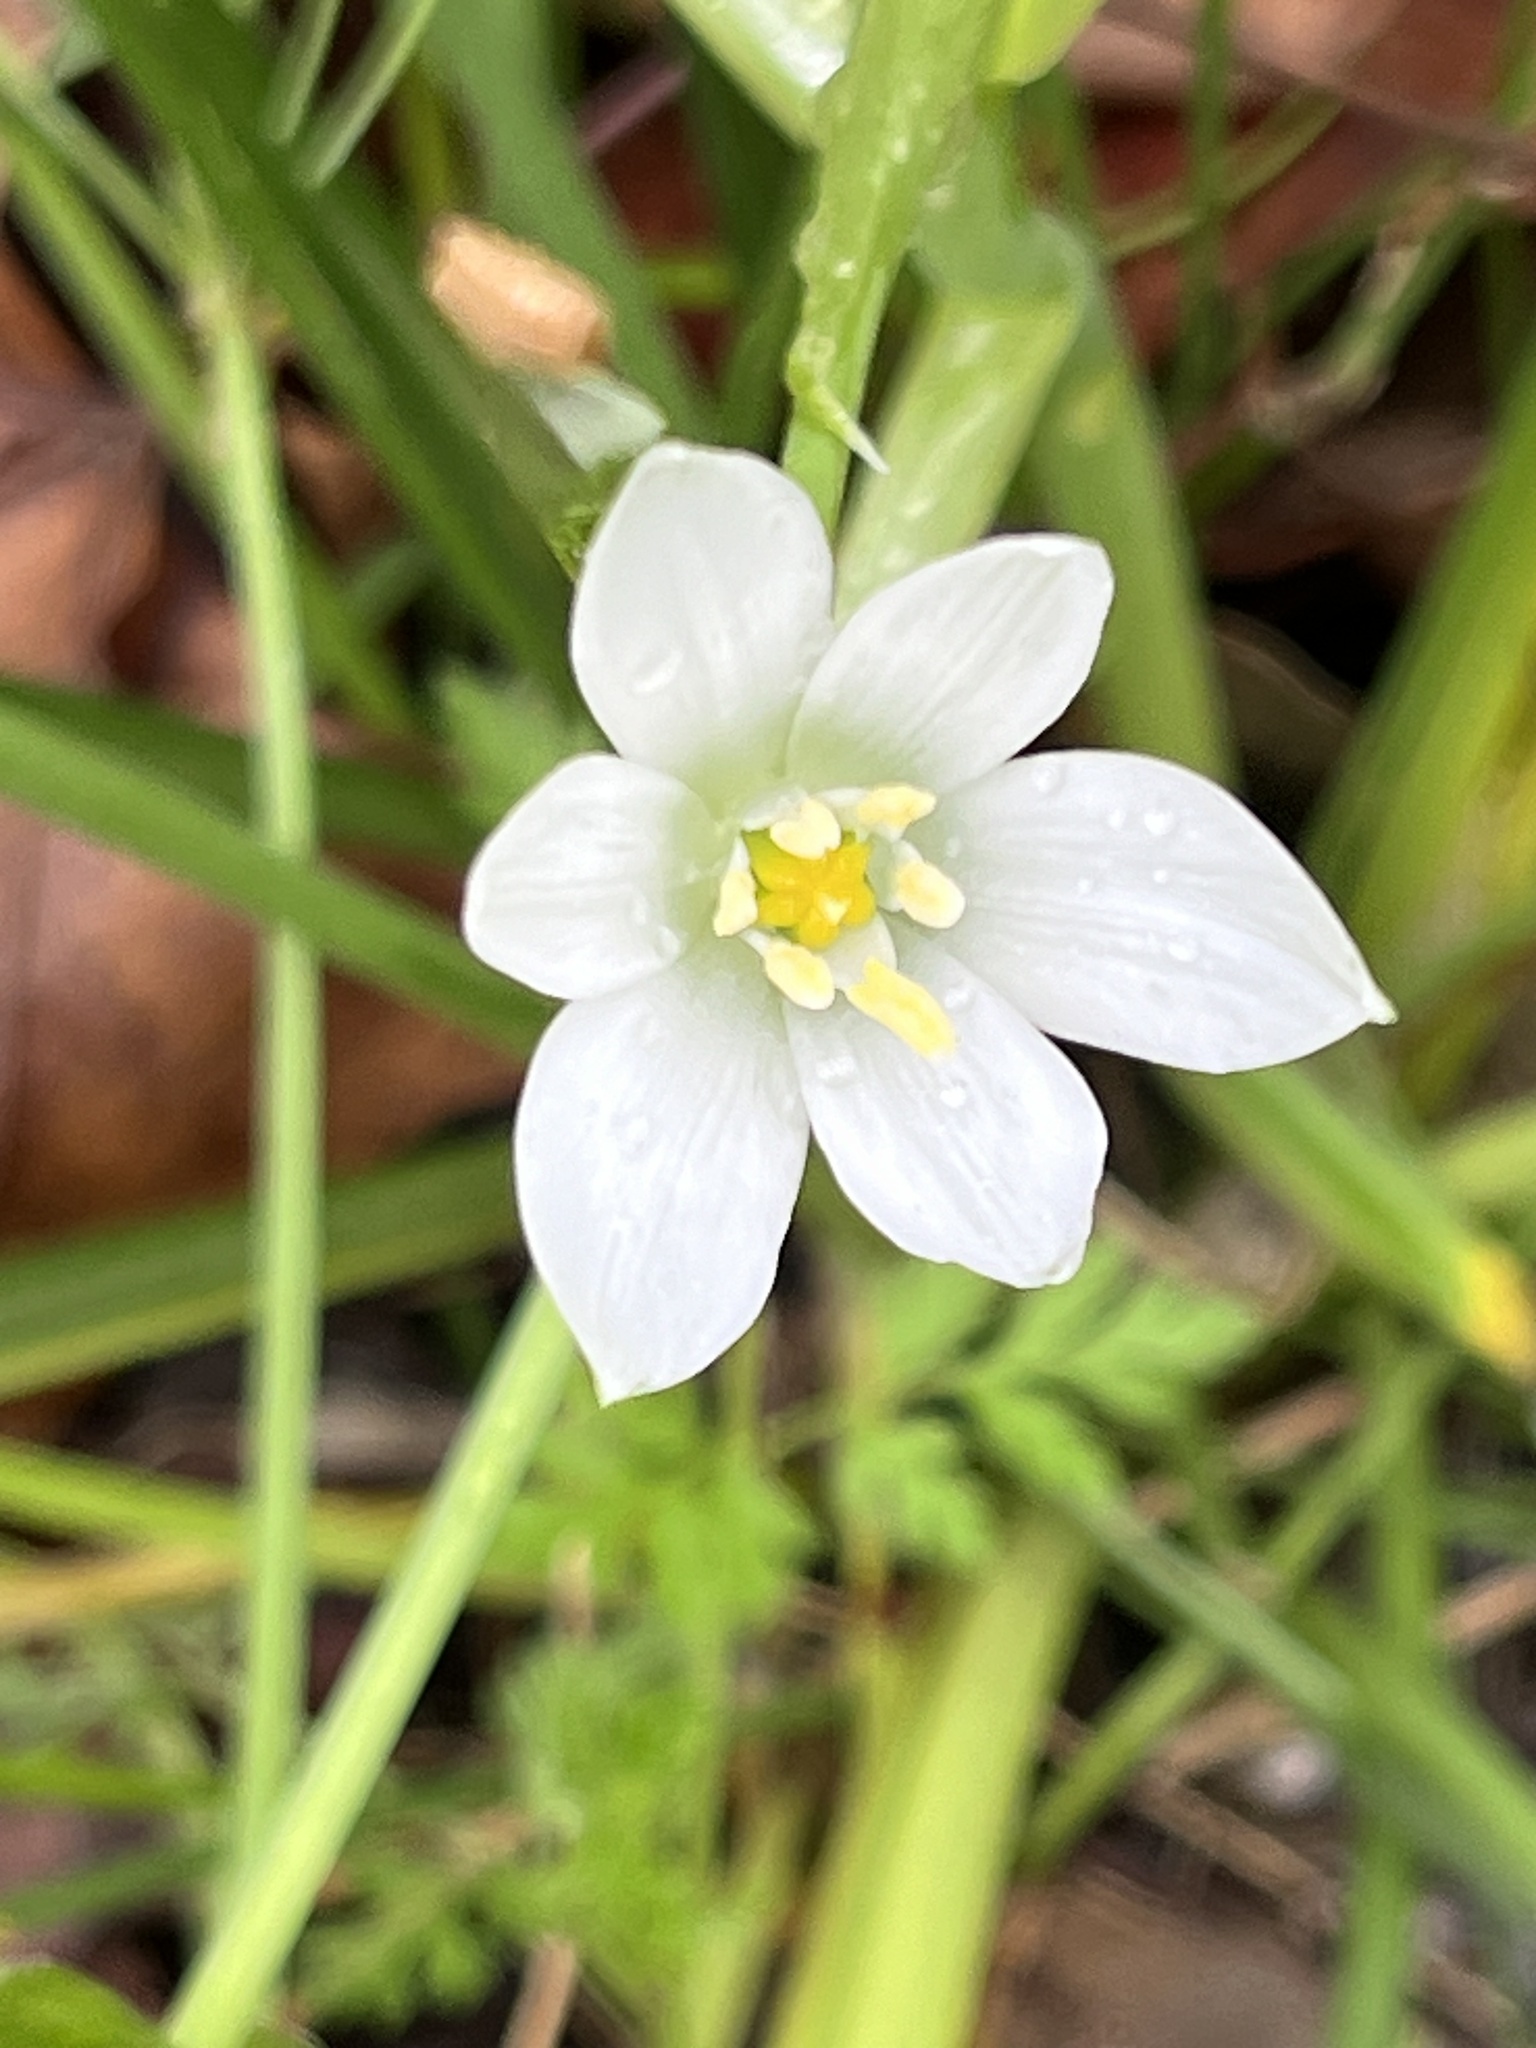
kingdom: Plantae
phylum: Tracheophyta
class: Liliopsida
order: Asparagales
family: Asparagaceae
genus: Ornithogalum
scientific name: Ornithogalum umbellatum
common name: Garden star-of-bethlehem
